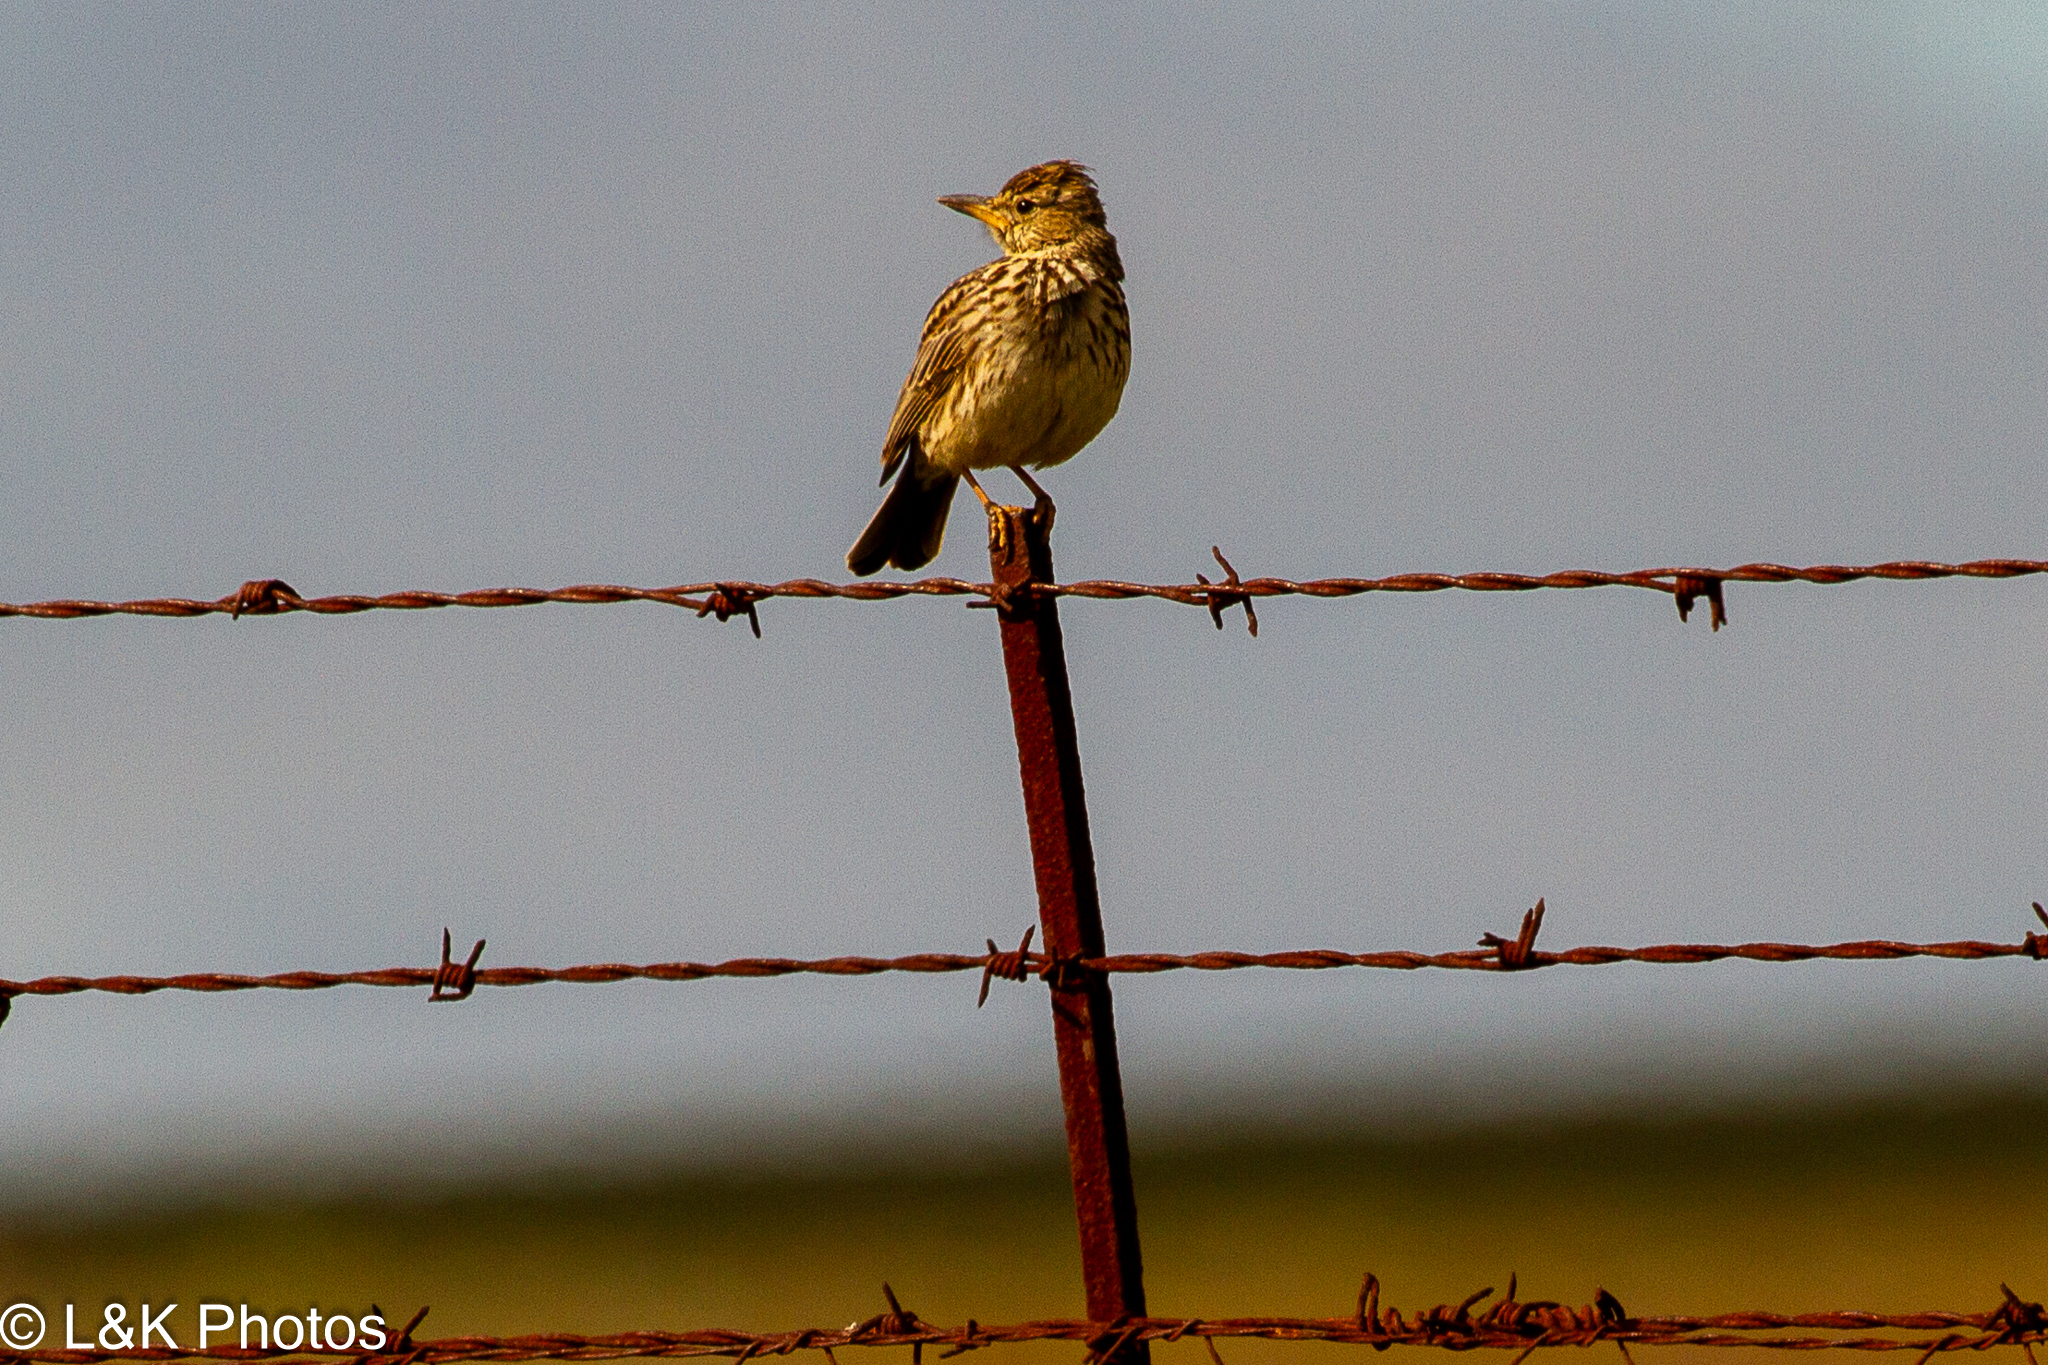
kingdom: Animalia
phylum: Chordata
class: Aves
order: Passeriformes
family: Alaudidae
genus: Galerida
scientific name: Galerida magnirostris
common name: Large-billed lark
